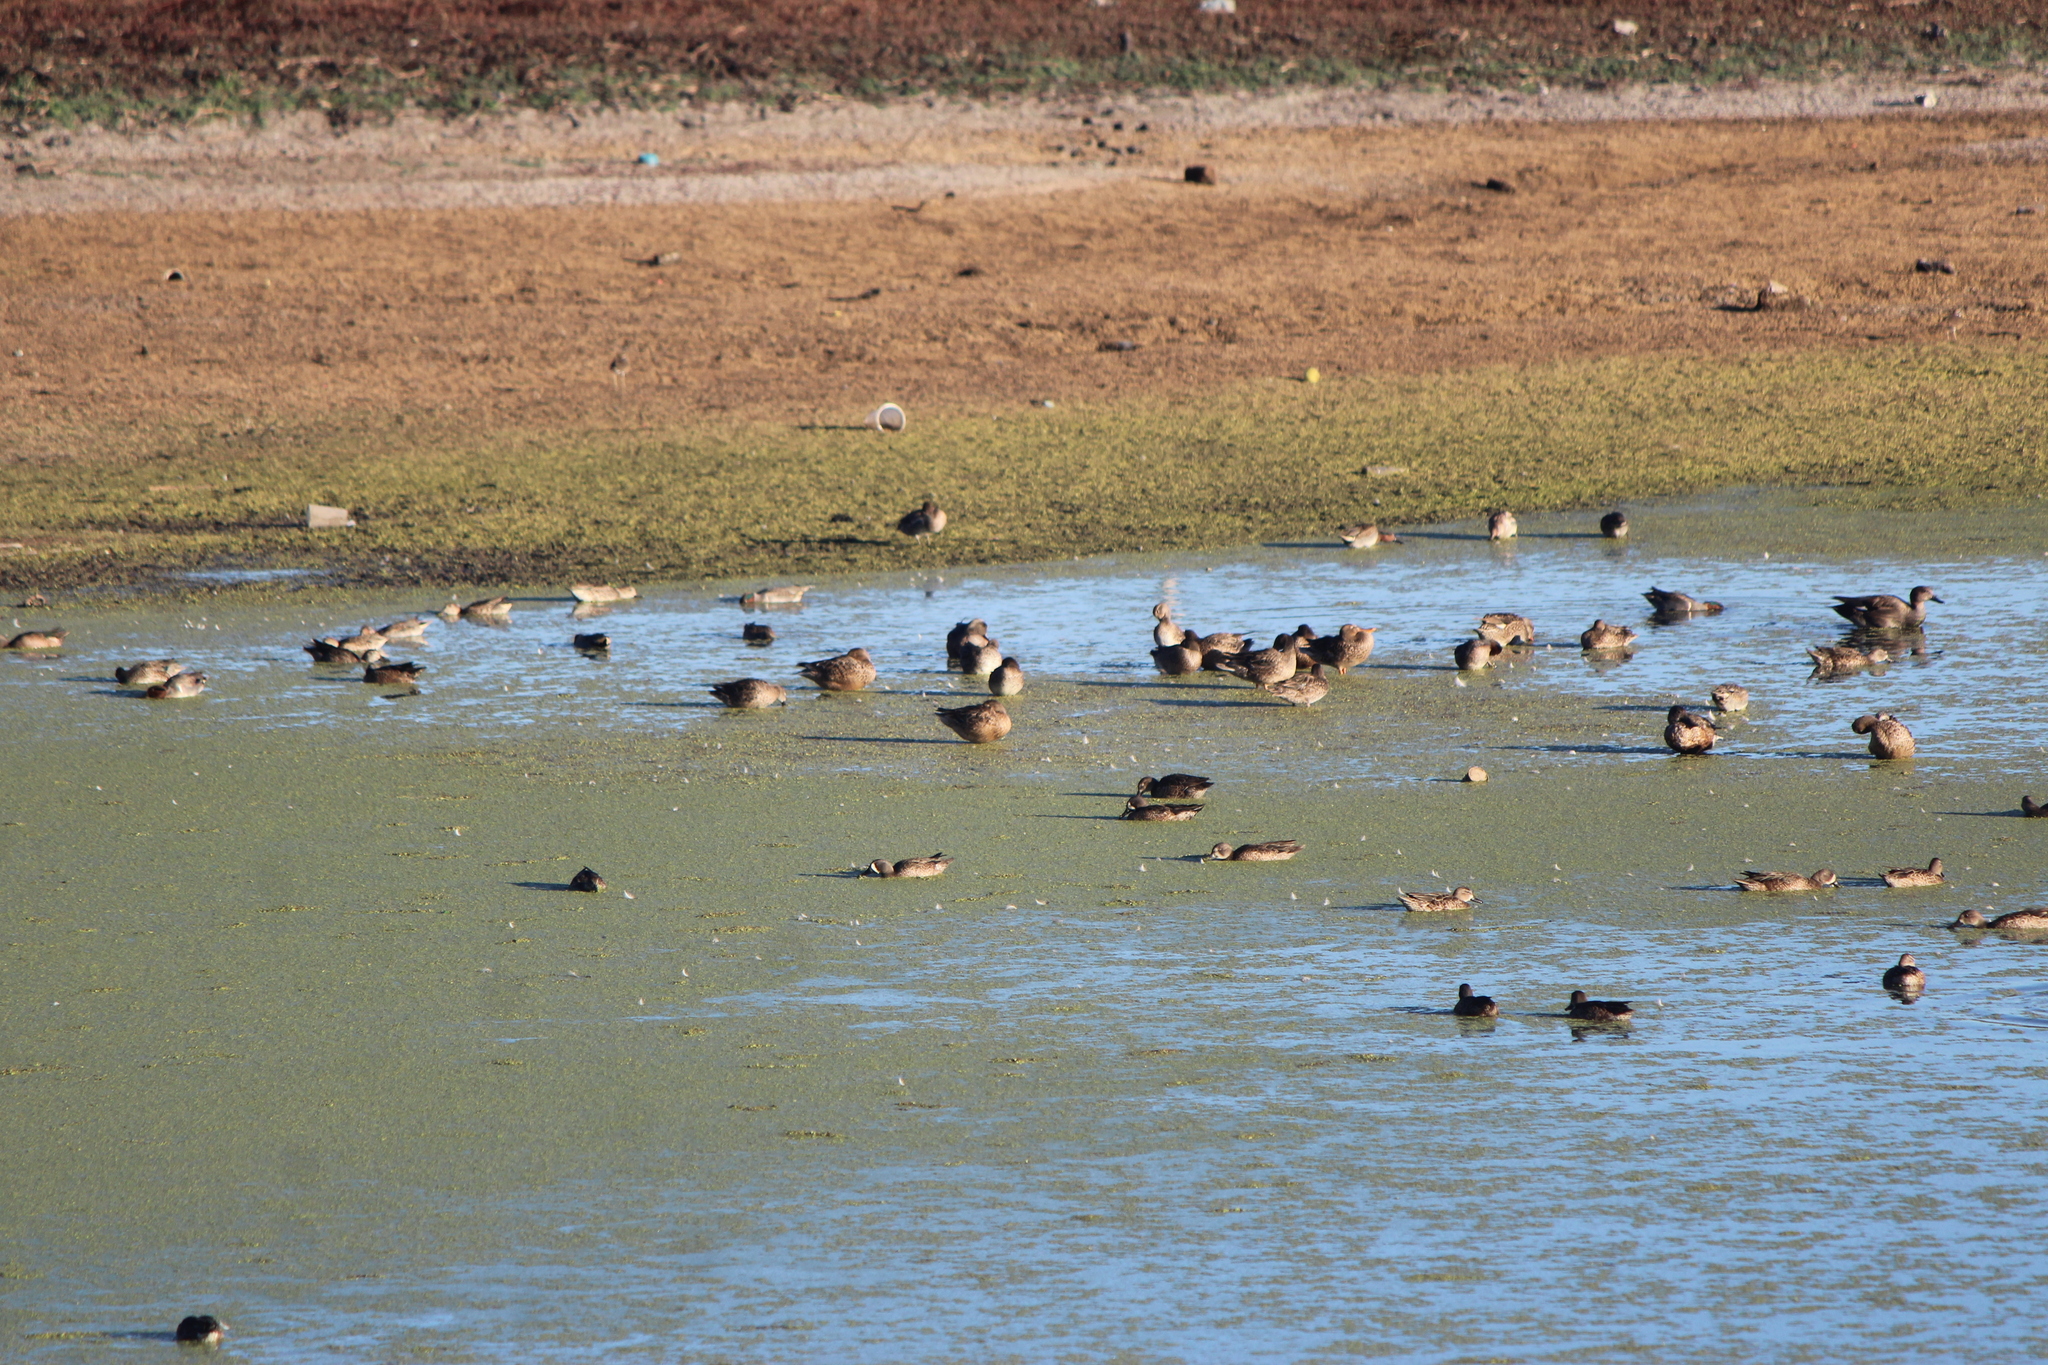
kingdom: Animalia
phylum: Chordata
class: Aves
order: Anseriformes
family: Anatidae
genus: Spatula
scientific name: Spatula discors
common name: Blue-winged teal
